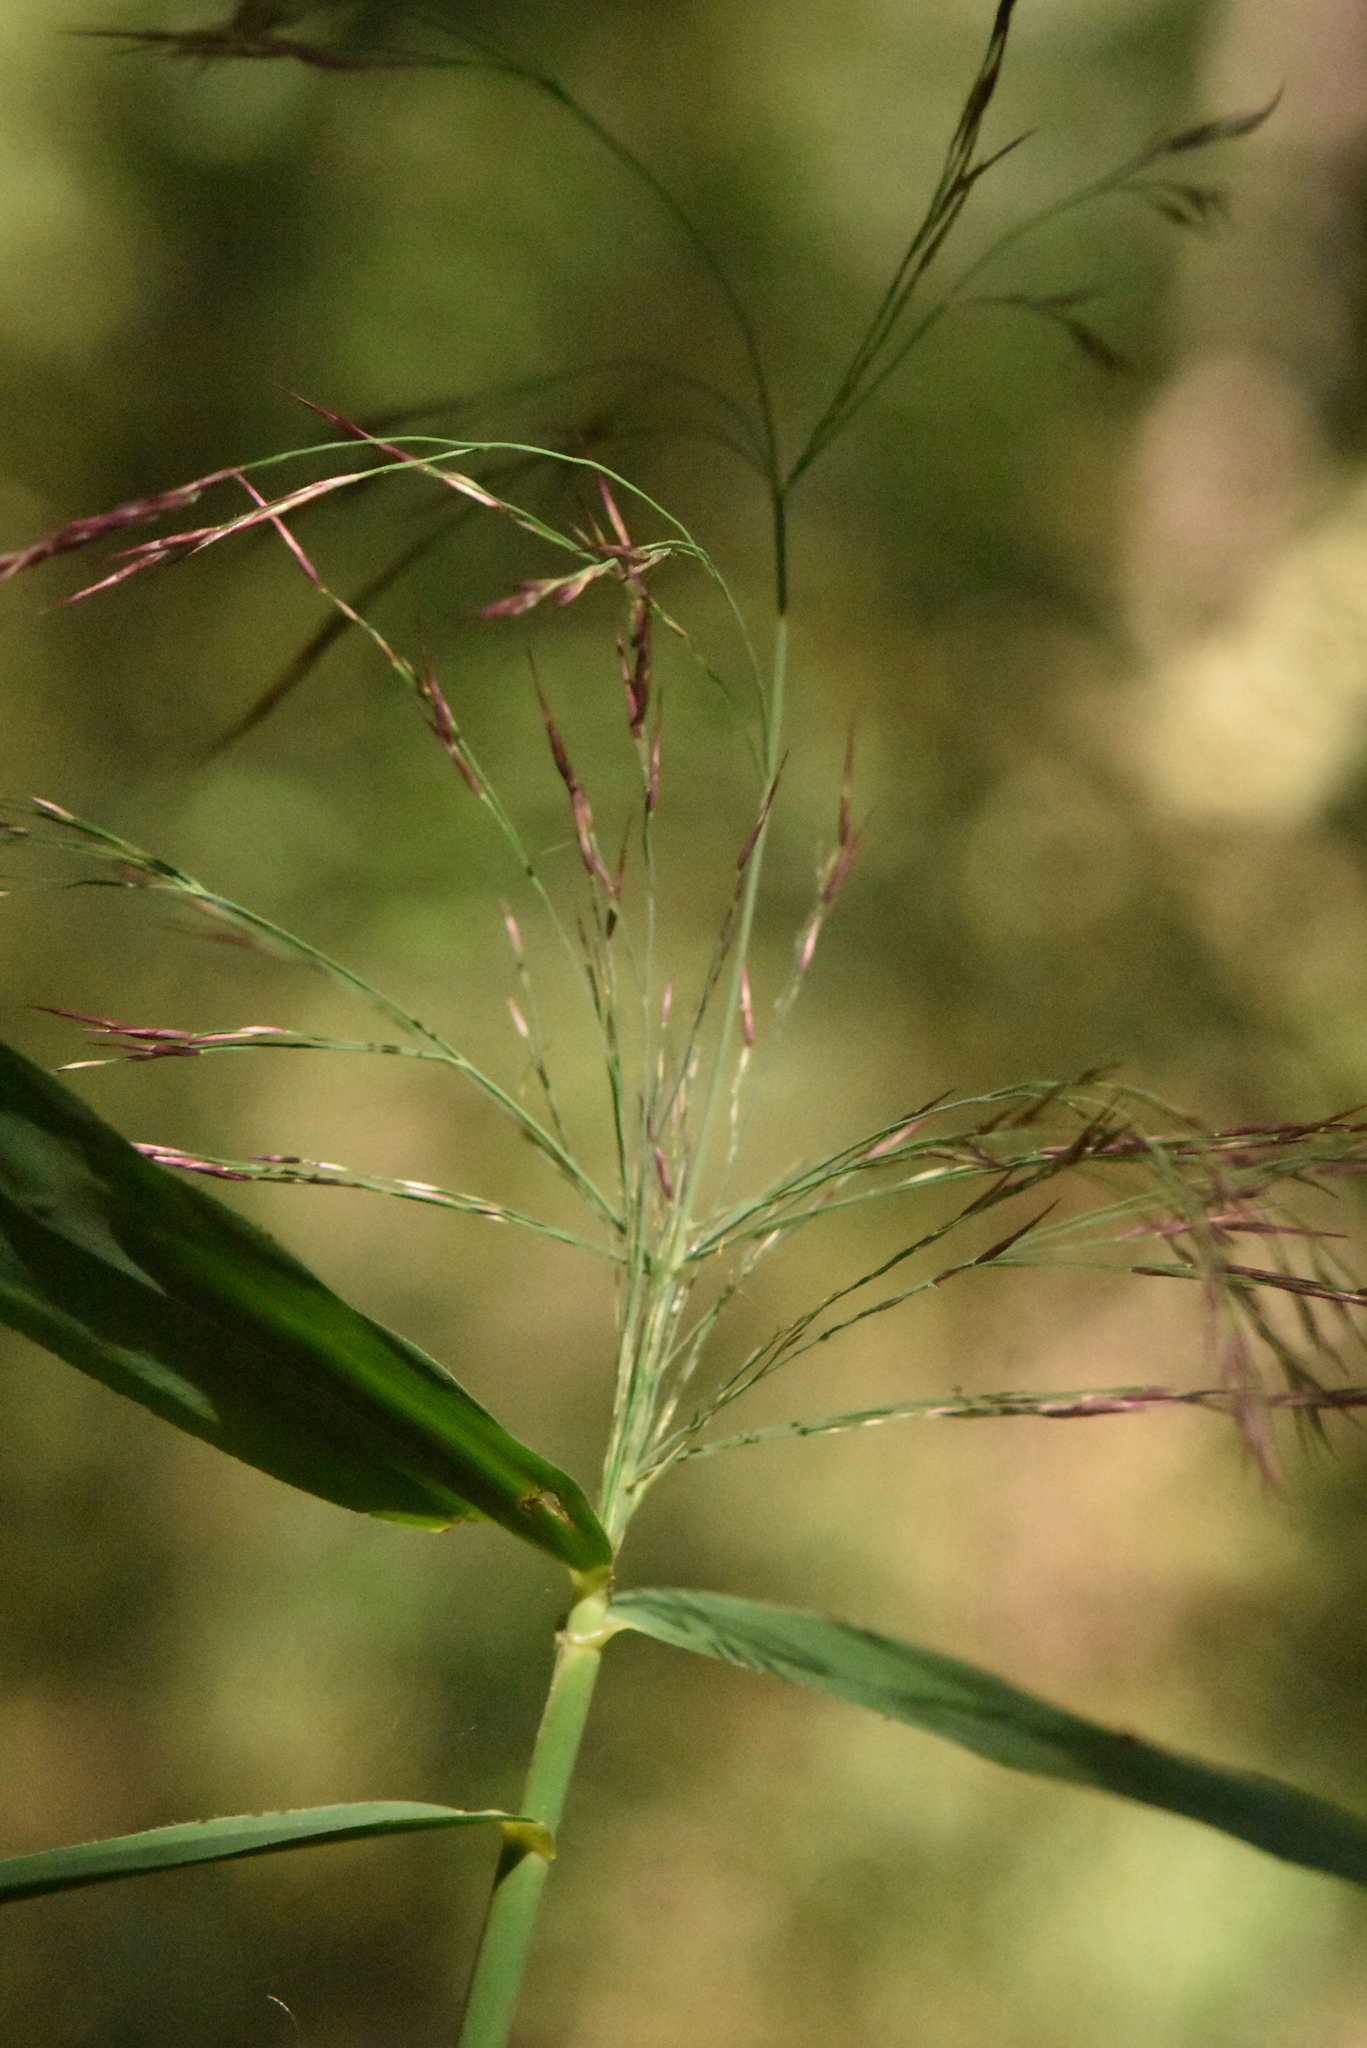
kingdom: Plantae
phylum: Tracheophyta
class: Liliopsida
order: Poales
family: Poaceae
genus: Phragmites
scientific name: Phragmites australis
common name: Common reed
